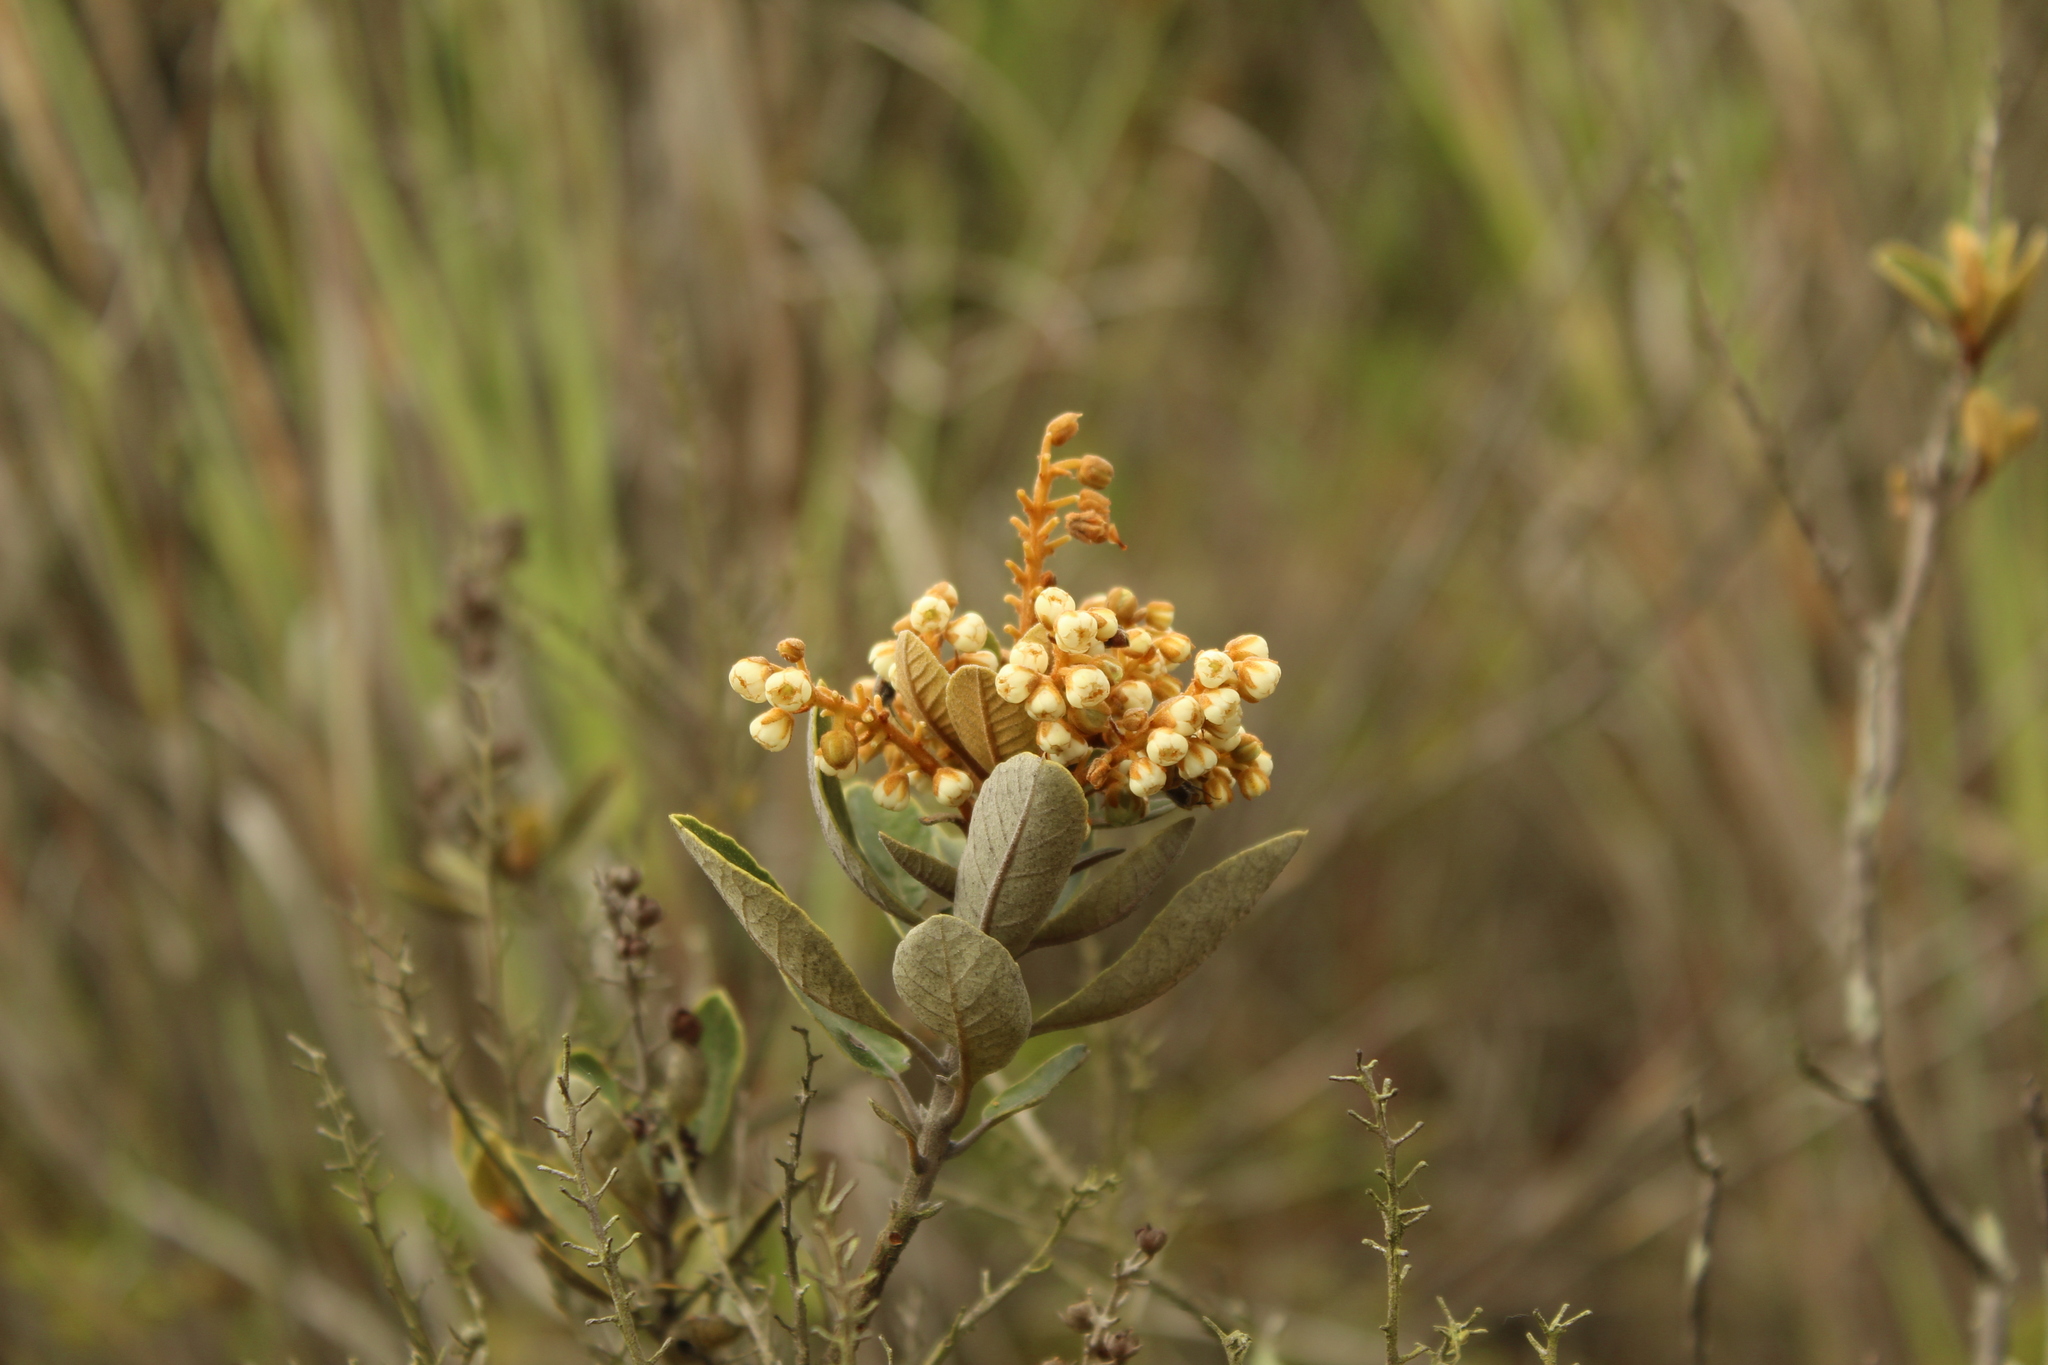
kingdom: Plantae
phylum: Tracheophyta
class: Magnoliopsida
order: Ericales
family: Clethraceae
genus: Clethra
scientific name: Clethra fimbriata
